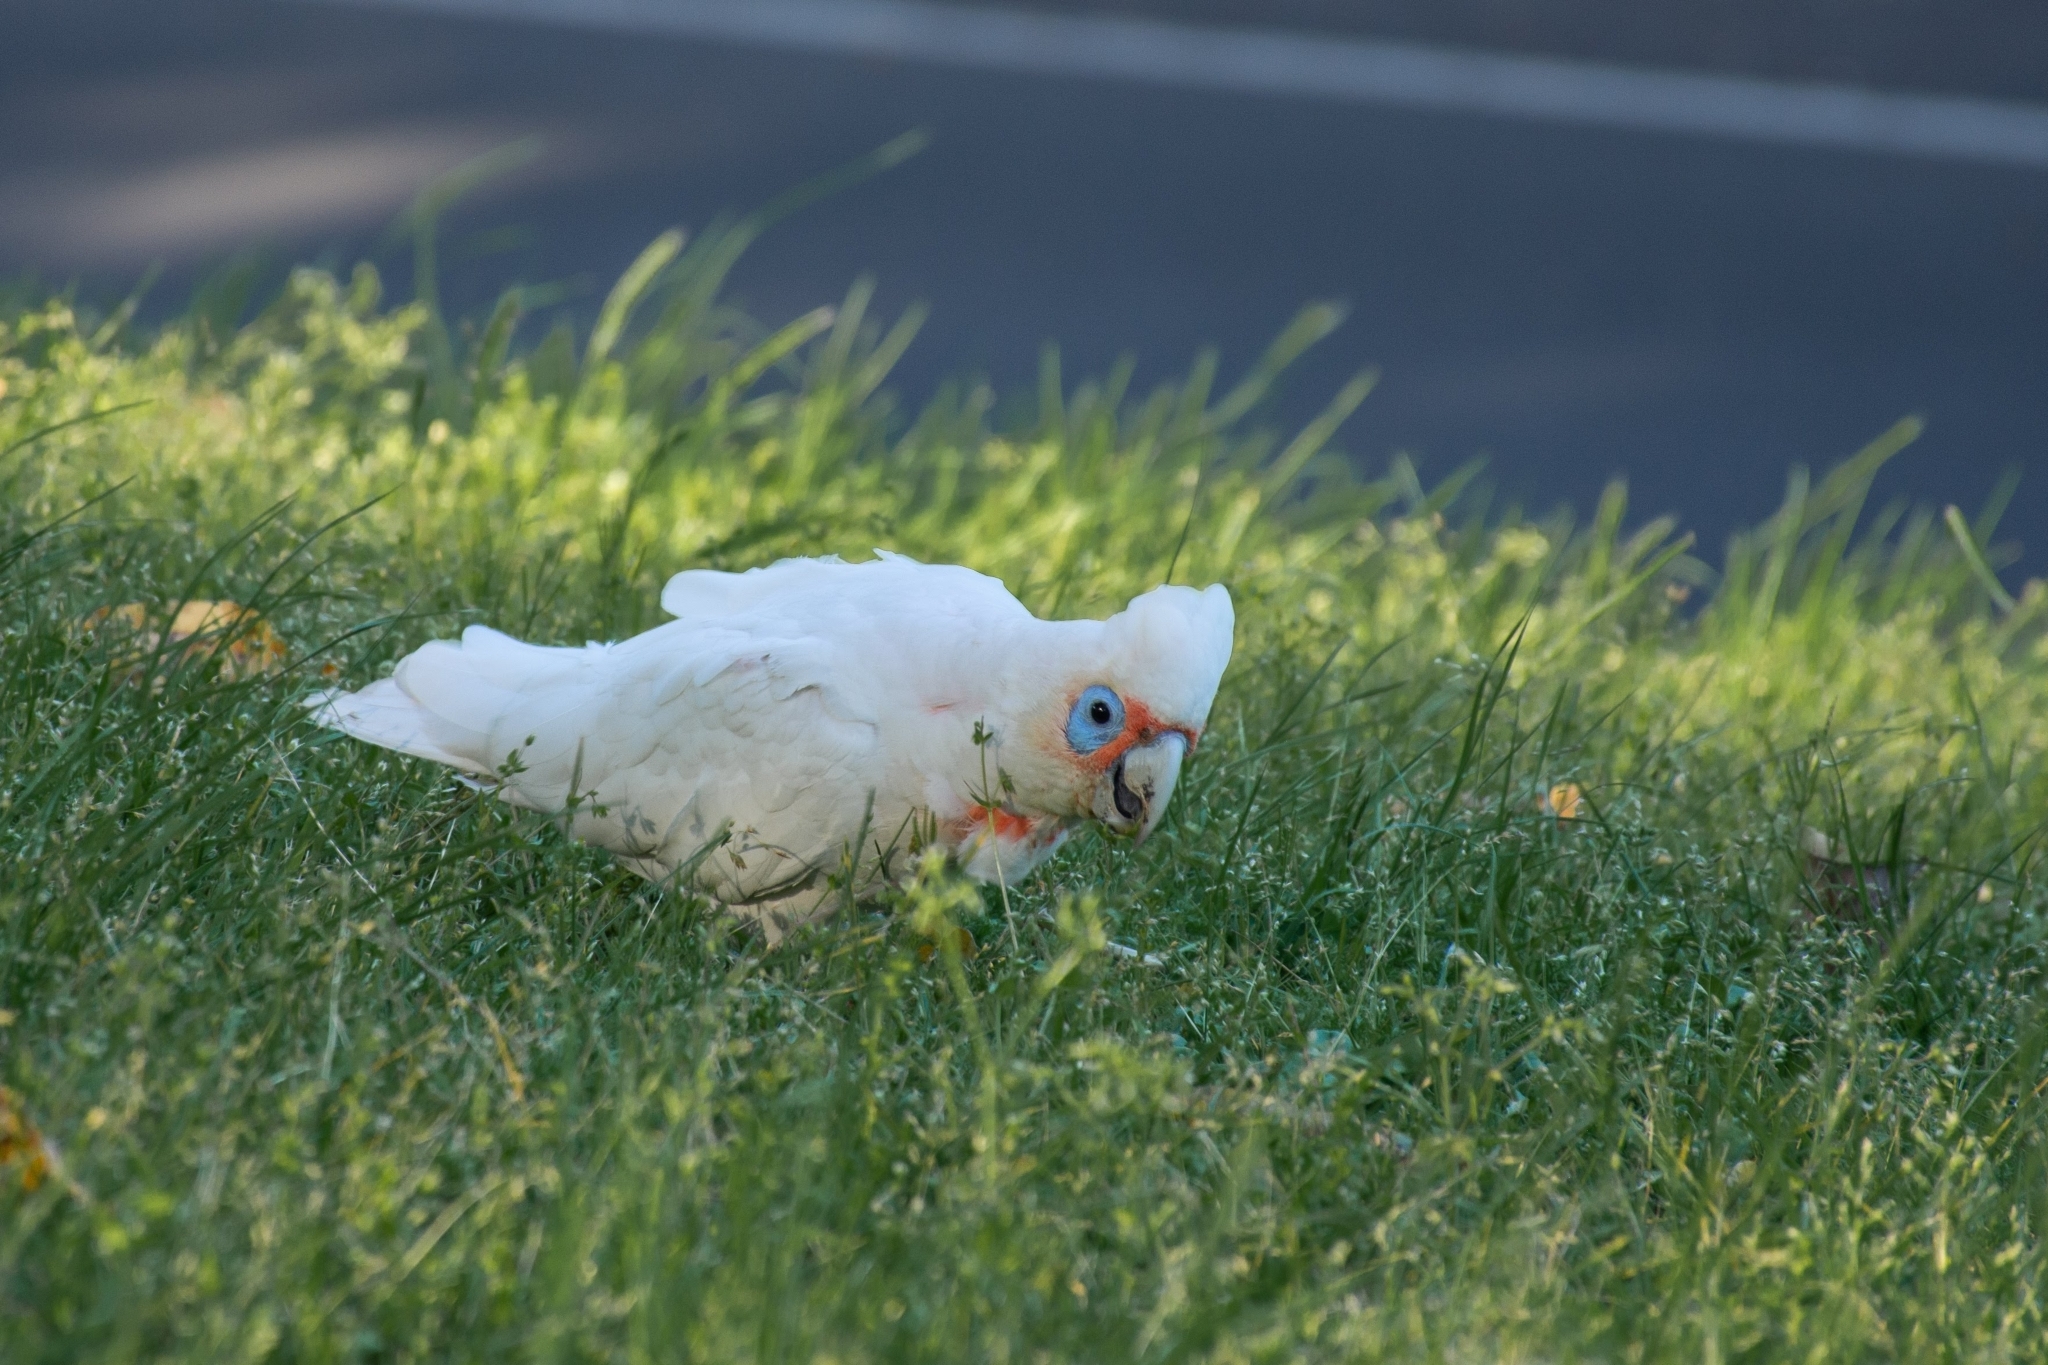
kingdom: Animalia
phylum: Chordata
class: Aves
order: Psittaciformes
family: Psittacidae
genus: Cacatua
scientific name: Cacatua tenuirostris
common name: Long-billed corella
